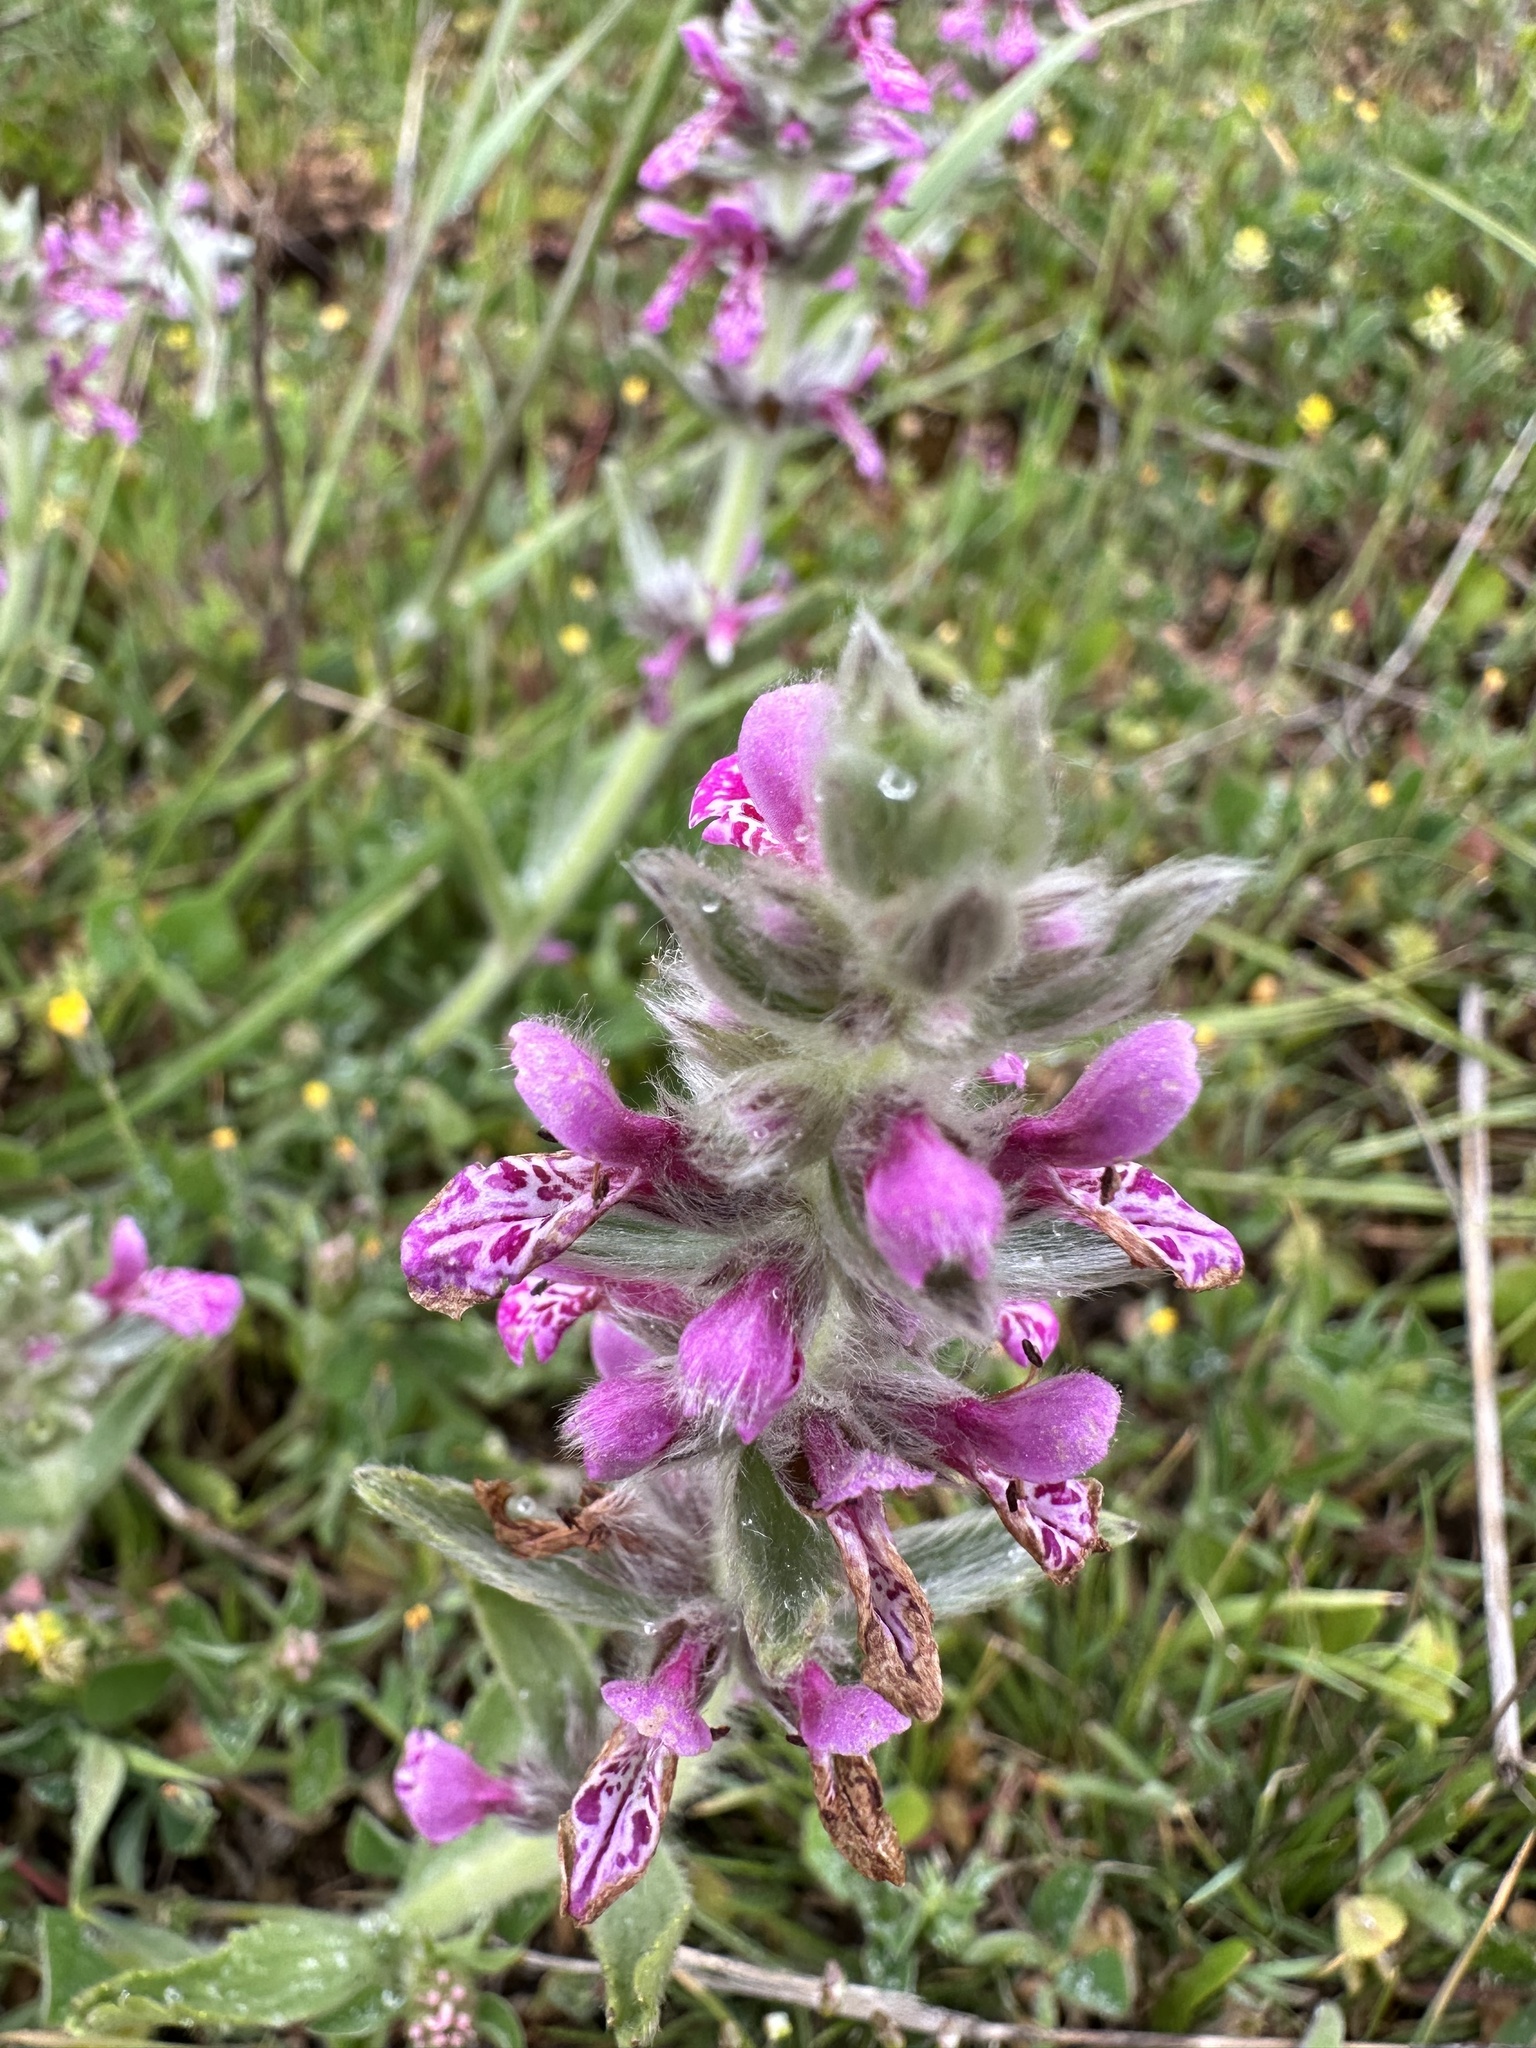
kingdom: Plantae
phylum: Tracheophyta
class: Magnoliopsida
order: Lamiales
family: Lamiaceae
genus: Stachys
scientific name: Stachys grandidentata
